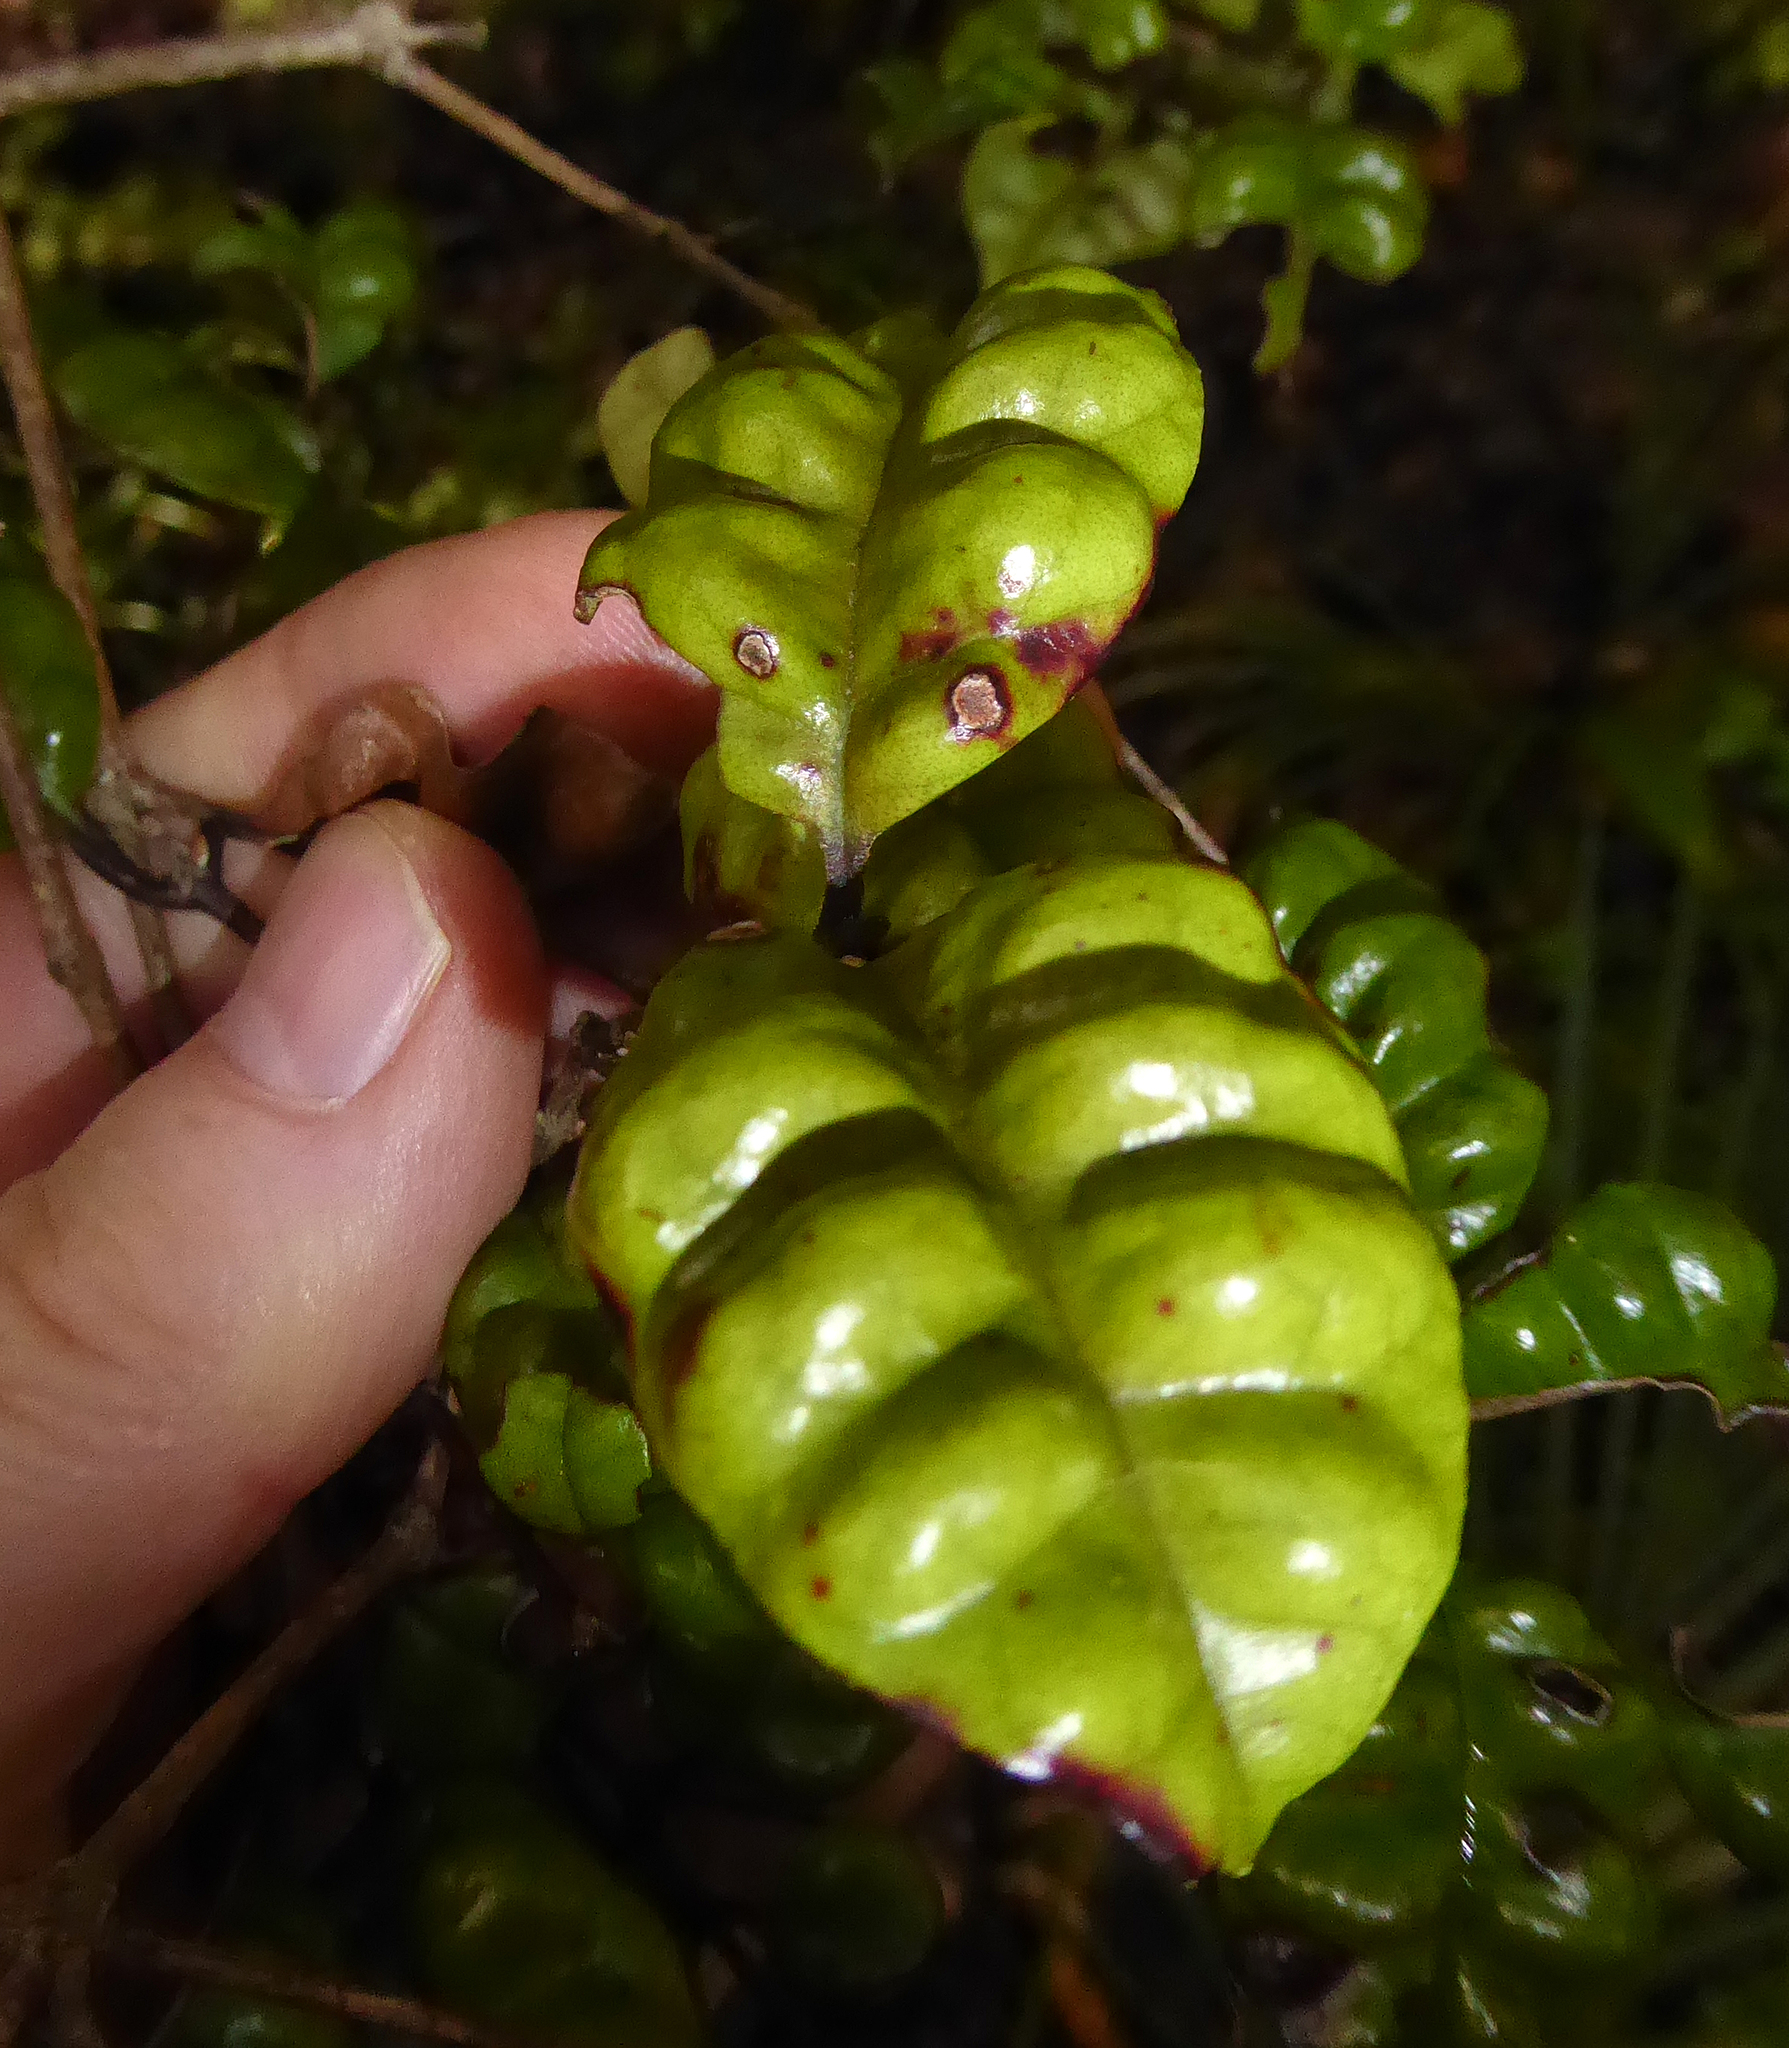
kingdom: Plantae
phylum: Tracheophyta
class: Magnoliopsida
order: Myrtales
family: Myrtaceae
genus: Lophomyrtus
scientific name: Lophomyrtus bullata
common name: Rama rama
